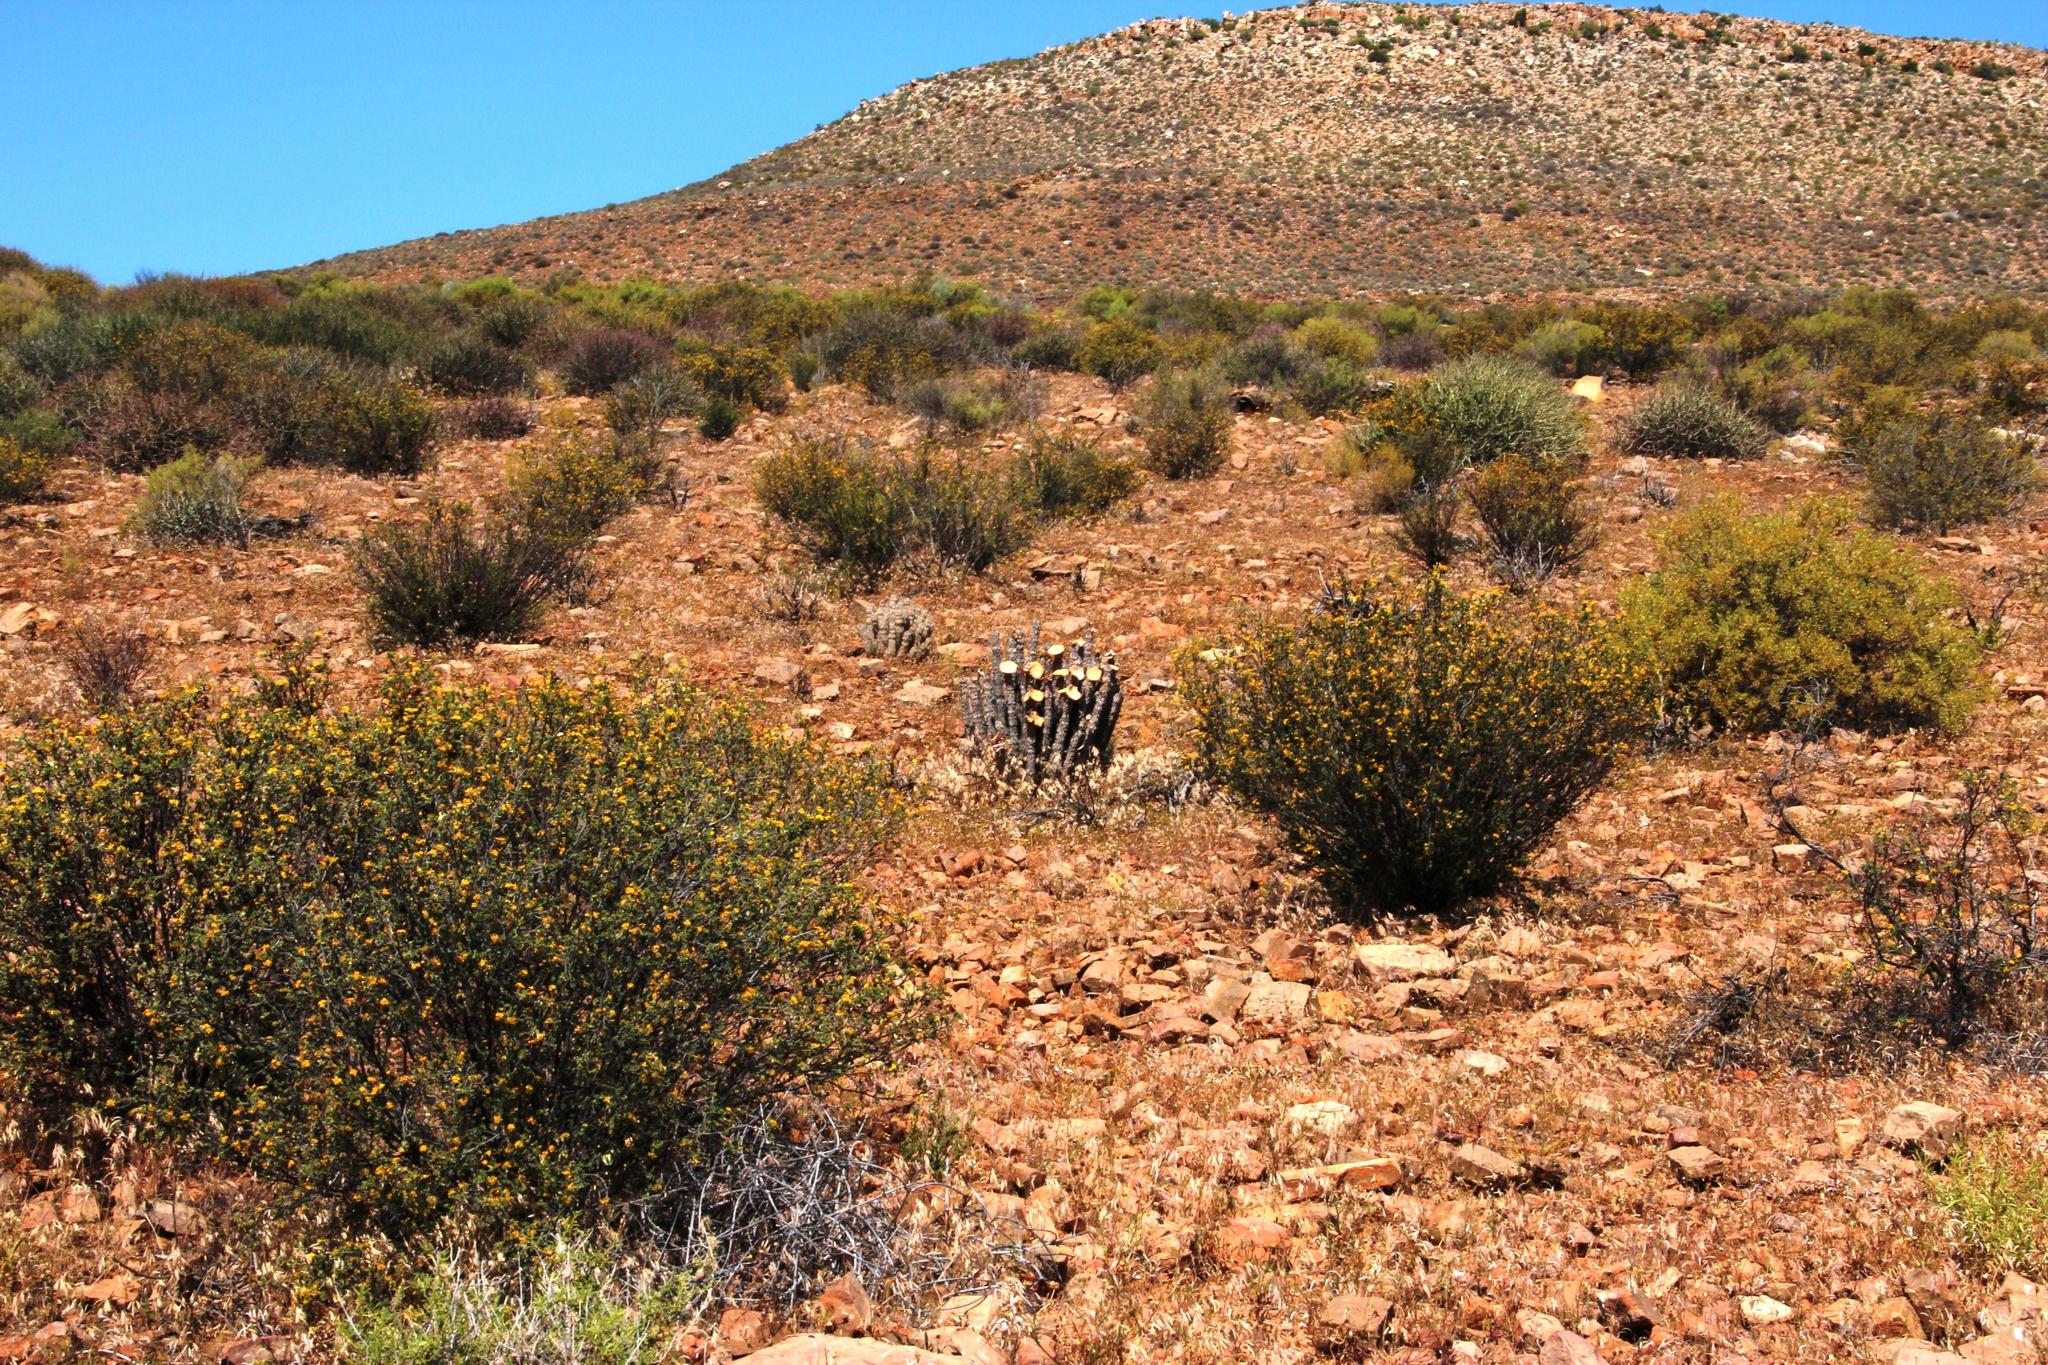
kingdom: Plantae
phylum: Tracheophyta
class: Magnoliopsida
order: Gentianales
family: Apocynaceae
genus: Hoodia
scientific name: Hoodia gordonii
